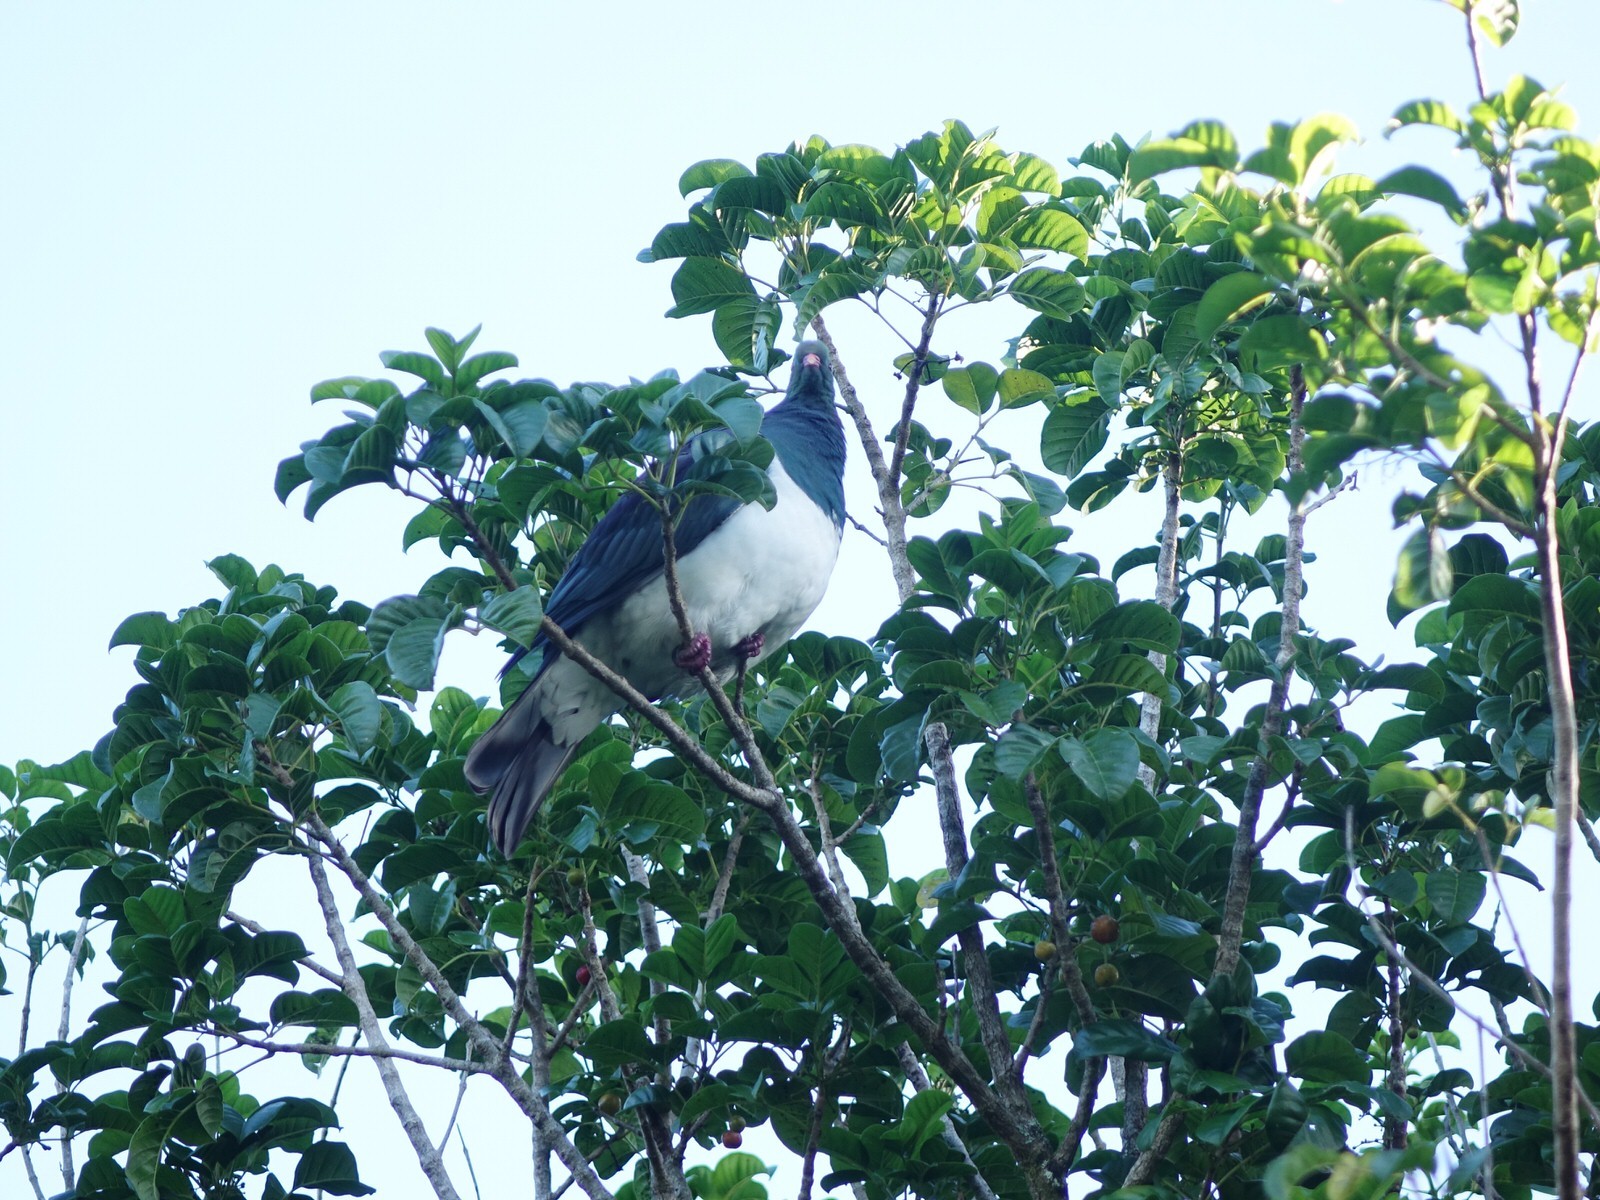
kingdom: Animalia
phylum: Chordata
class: Aves
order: Columbiformes
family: Columbidae
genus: Hemiphaga
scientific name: Hemiphaga novaeseelandiae
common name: New zealand pigeon
